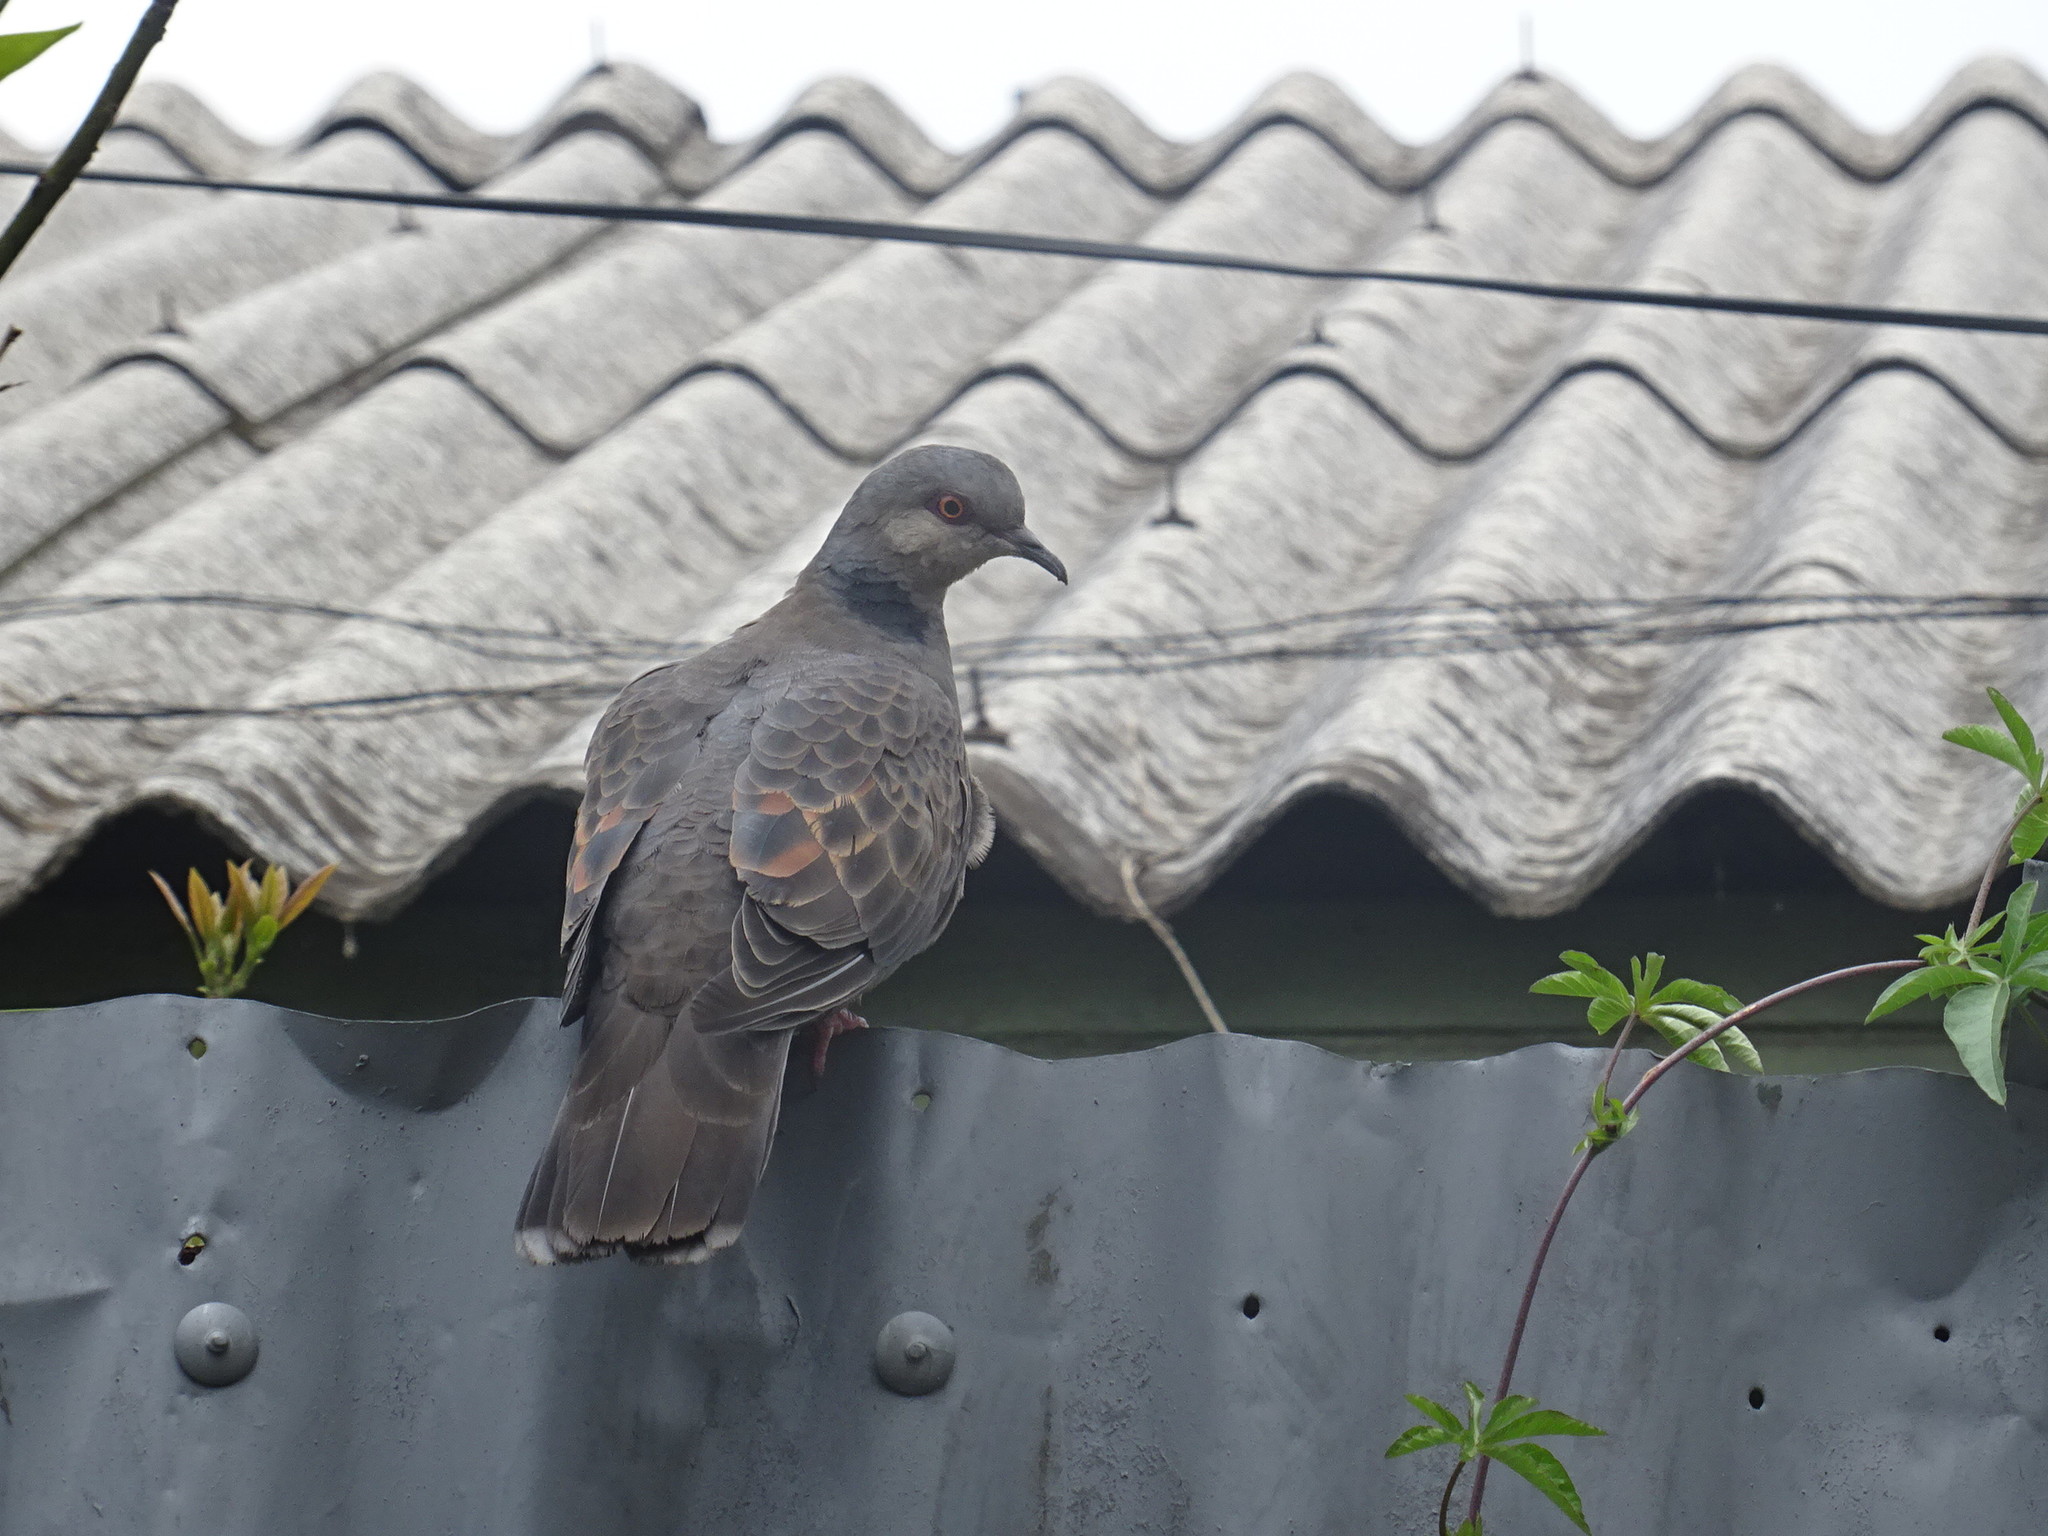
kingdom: Animalia
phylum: Chordata
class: Aves
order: Columbiformes
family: Columbidae
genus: Streptopelia
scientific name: Streptopelia lugens
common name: Dusky turtle dove
